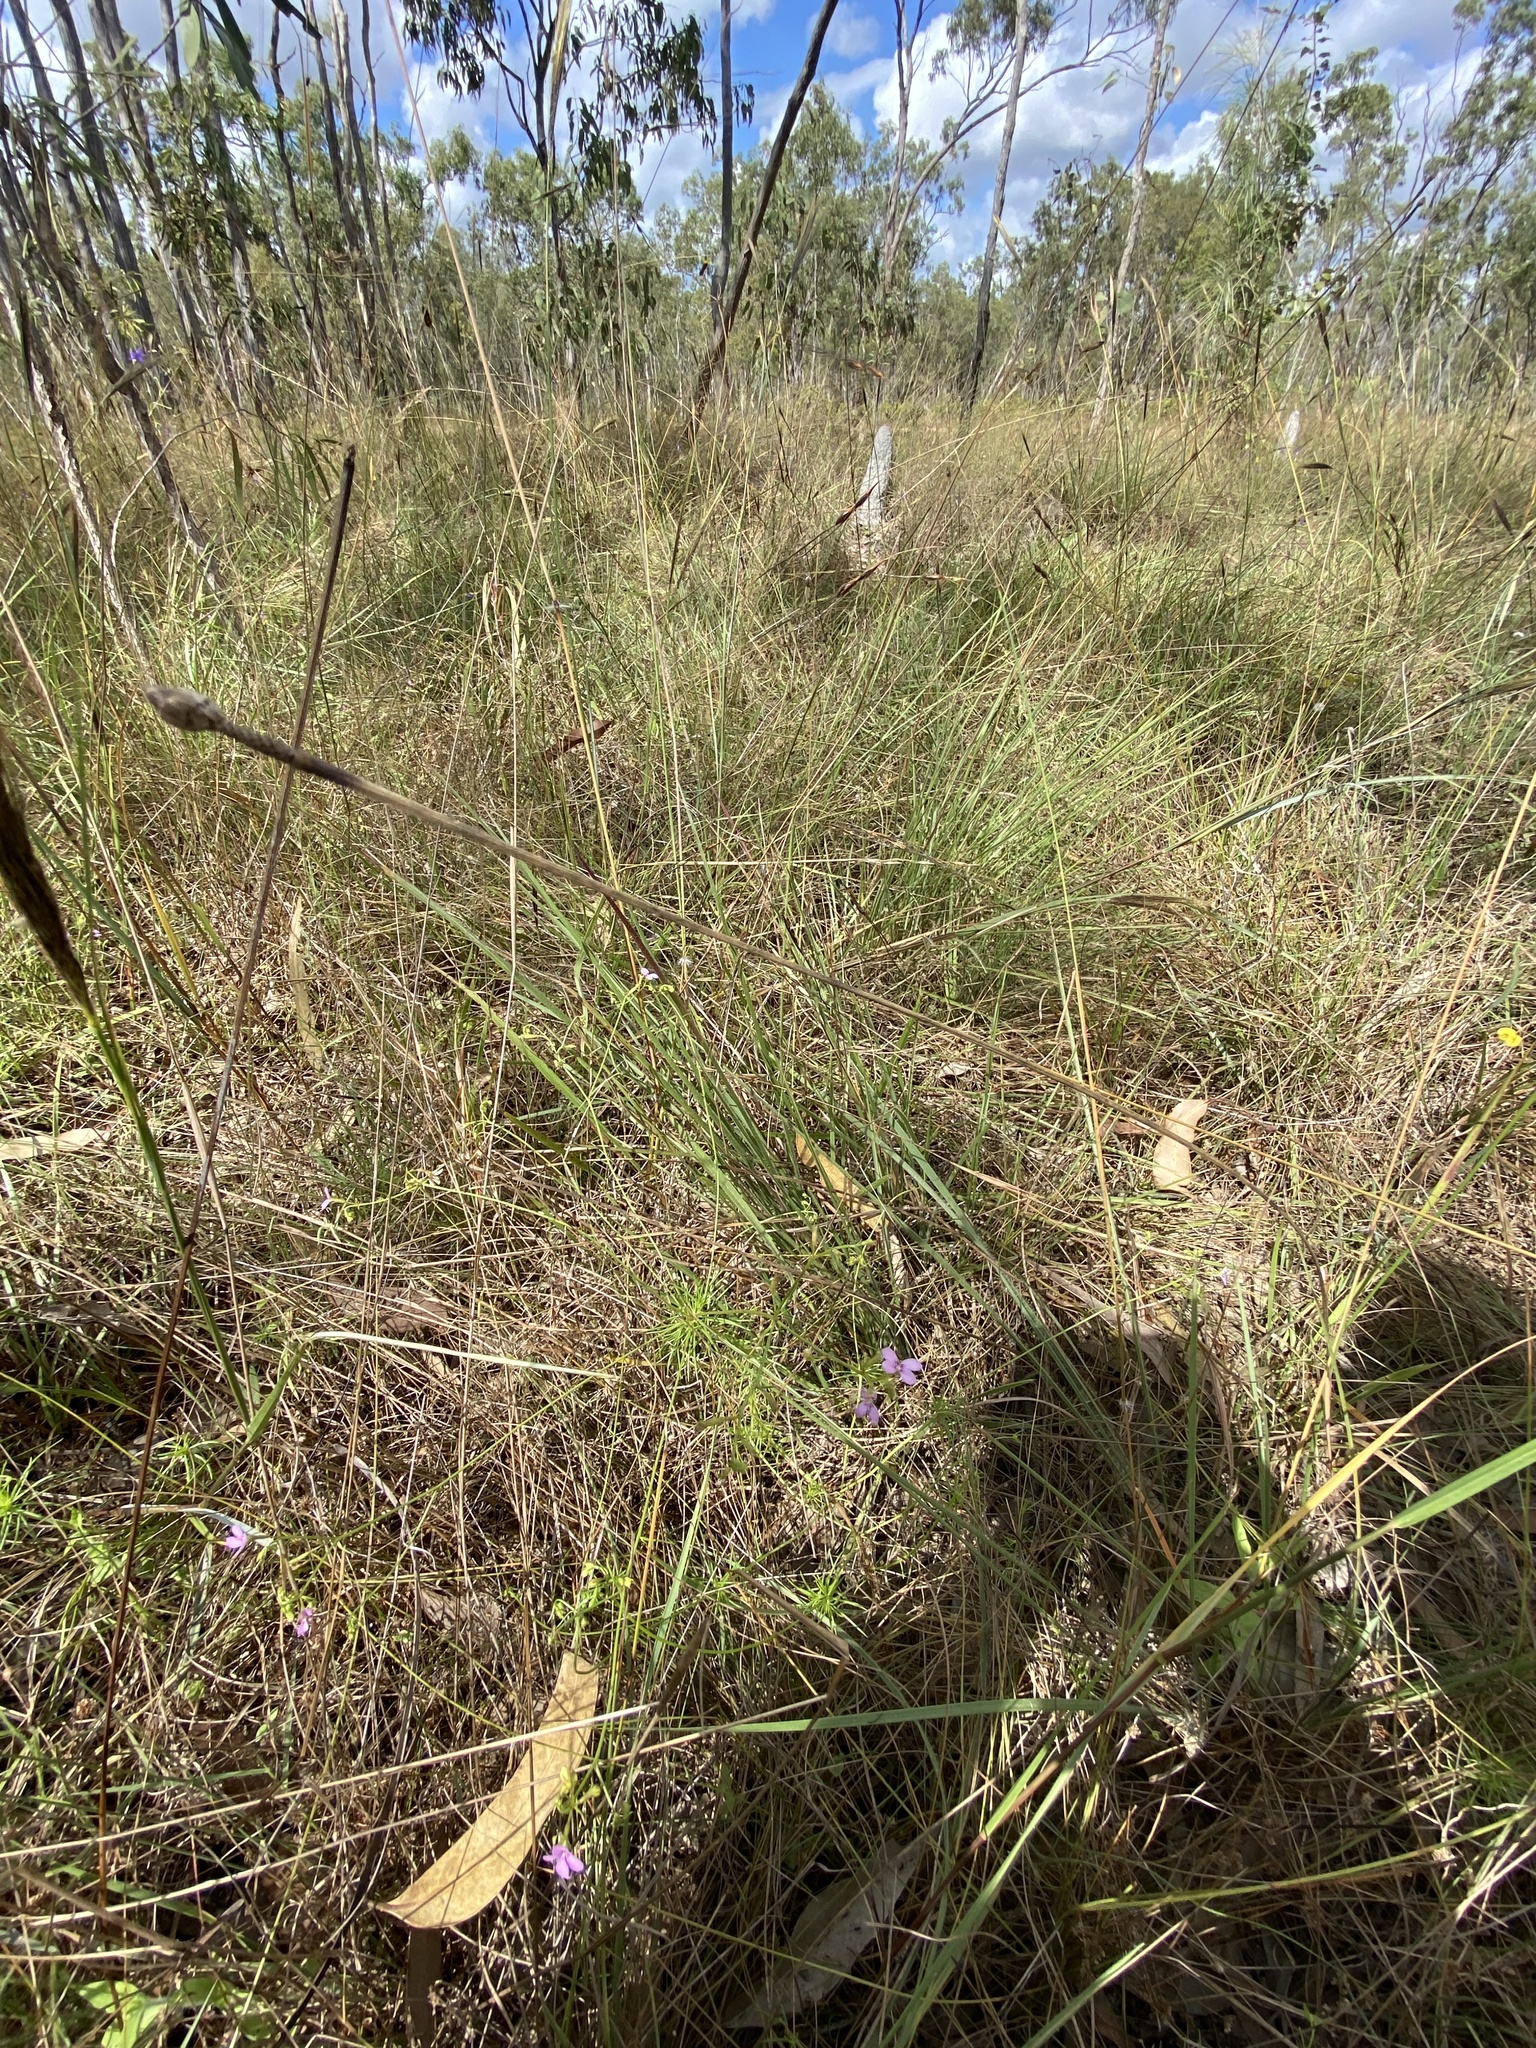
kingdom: Plantae
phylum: Tracheophyta
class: Magnoliopsida
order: Asterales
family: Stylidiaceae
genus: Stylidium
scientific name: Stylidium clarksonii
